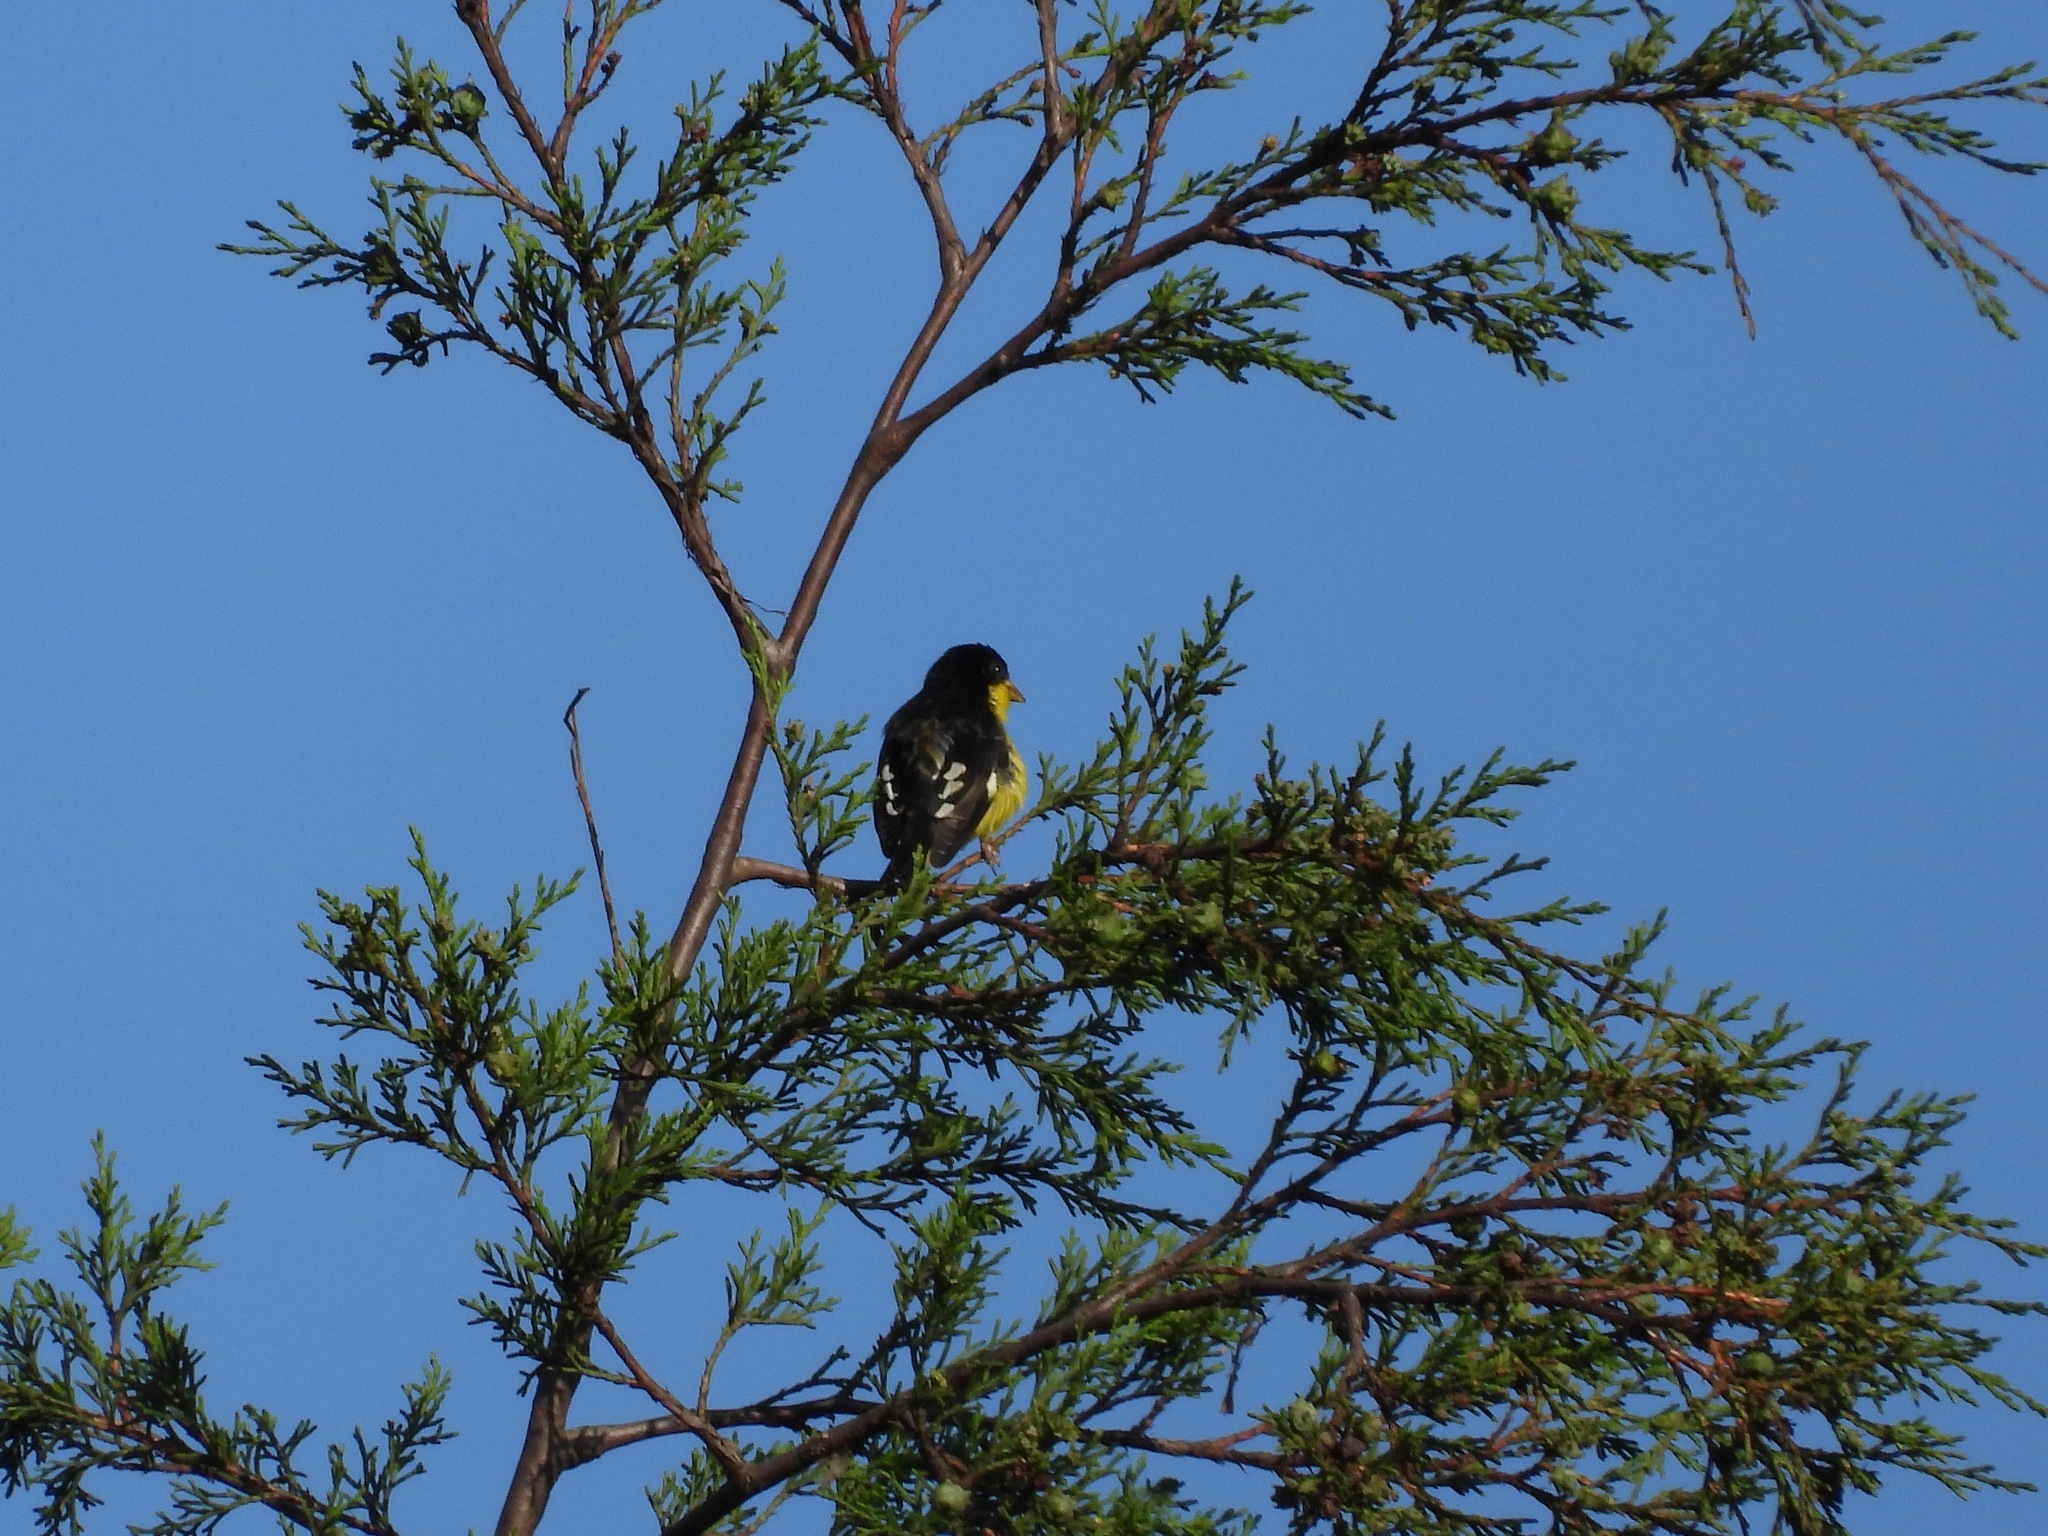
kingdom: Animalia
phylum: Chordata
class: Aves
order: Passeriformes
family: Fringillidae
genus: Spinus
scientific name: Spinus psaltria
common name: Lesser goldfinch
